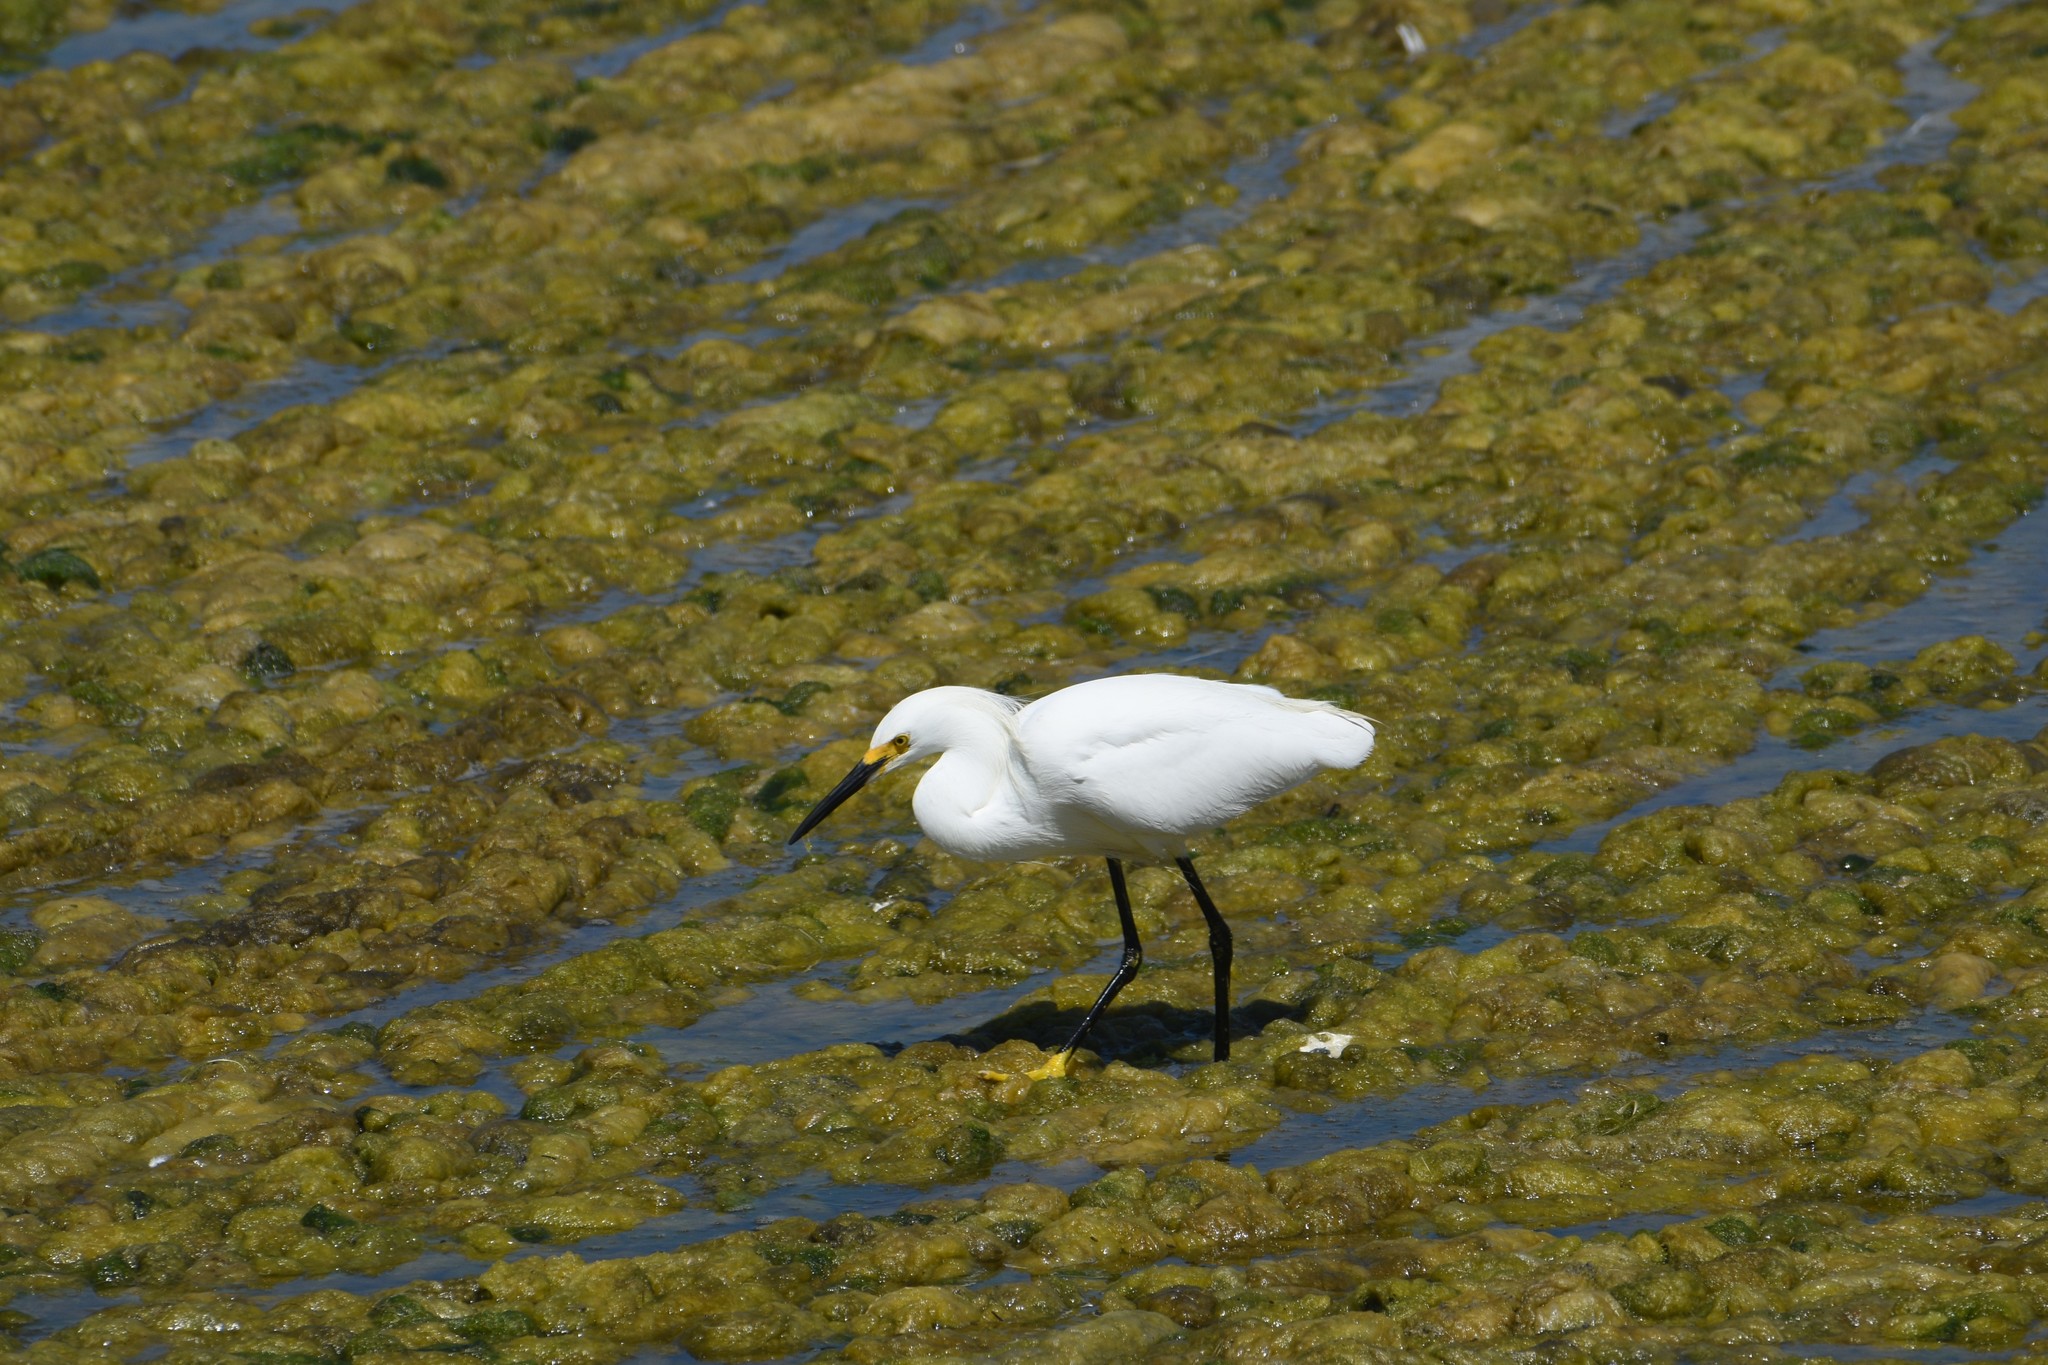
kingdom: Animalia
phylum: Chordata
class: Aves
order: Pelecaniformes
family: Ardeidae
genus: Egretta
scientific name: Egretta thula
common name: Snowy egret
